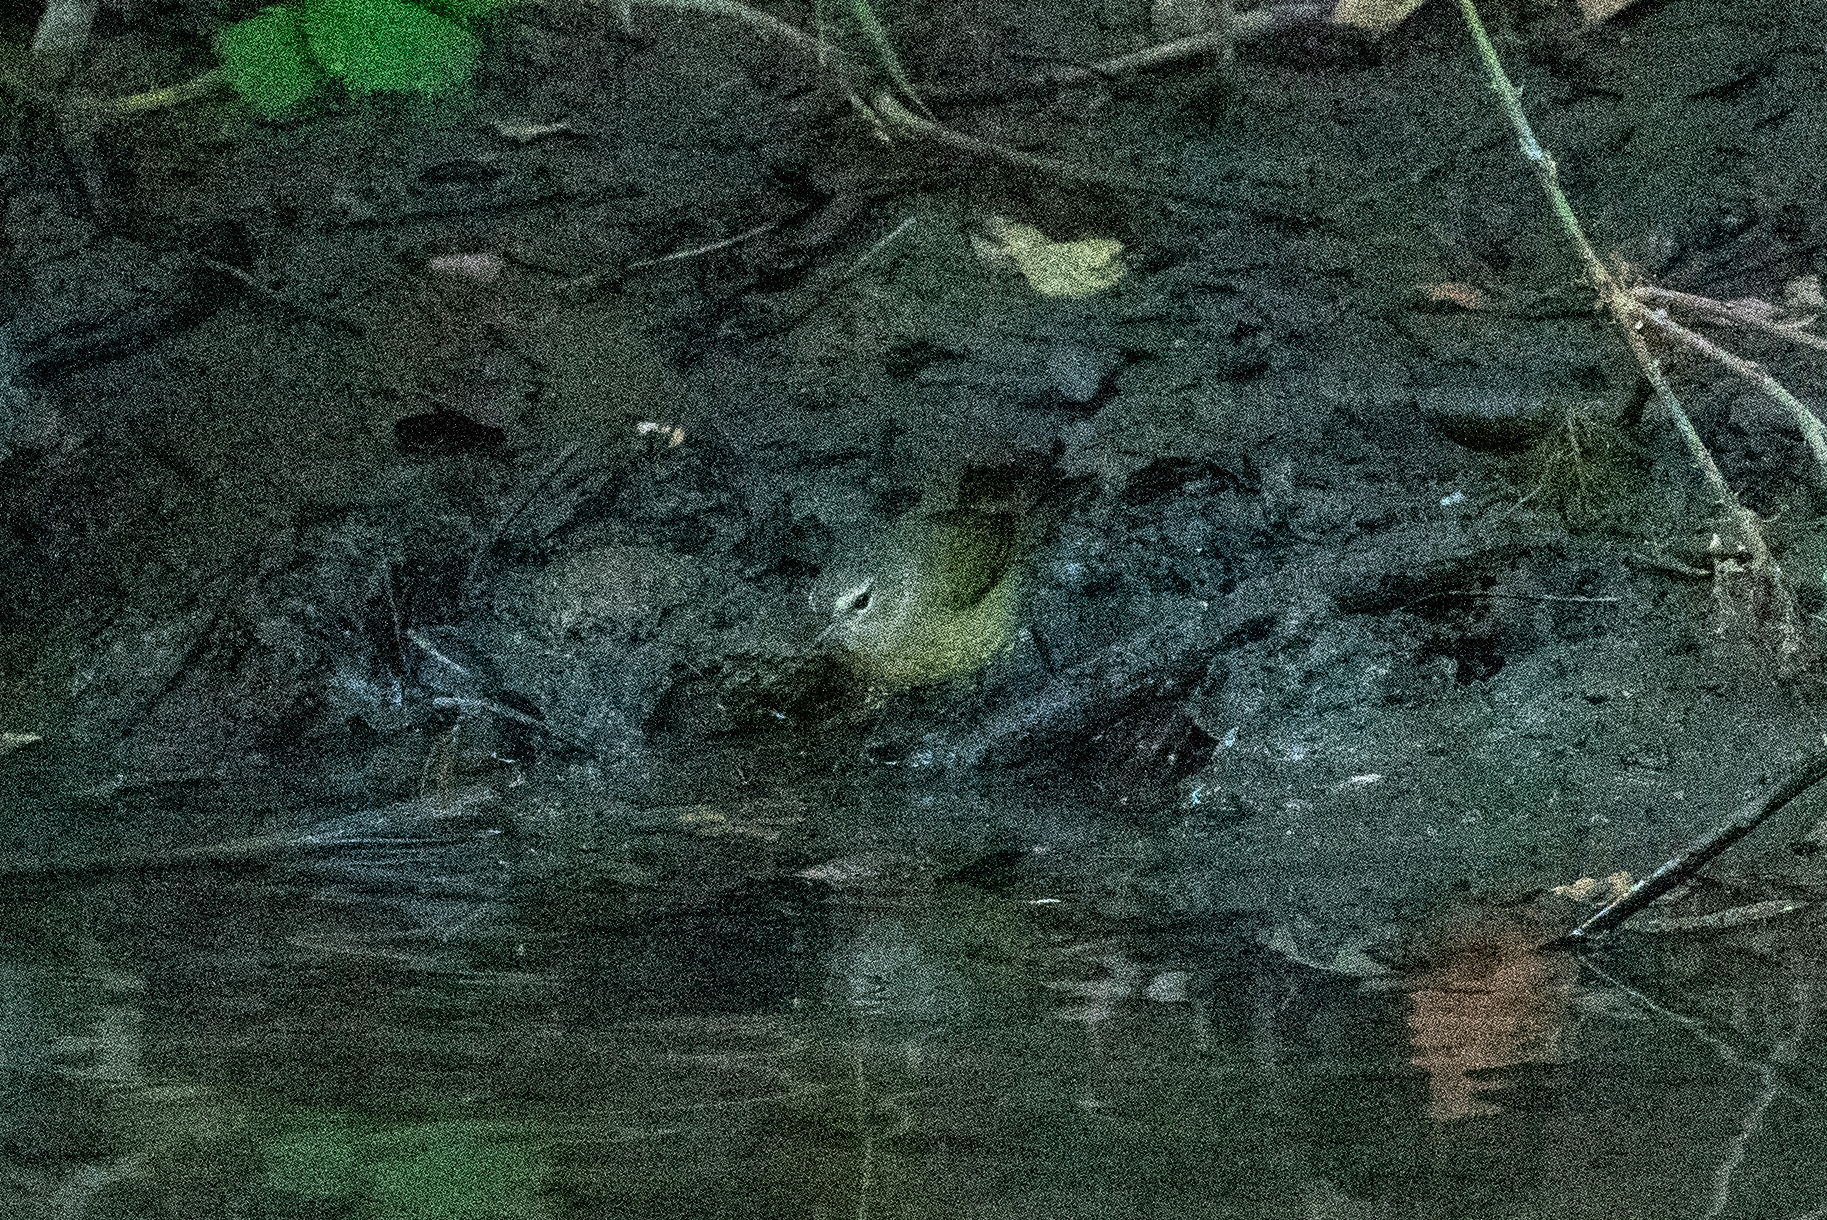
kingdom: Animalia
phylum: Chordata
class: Aves
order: Passeriformes
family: Parulidae
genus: Leiothlypis
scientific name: Leiothlypis celata
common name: Orange-crowned warbler
